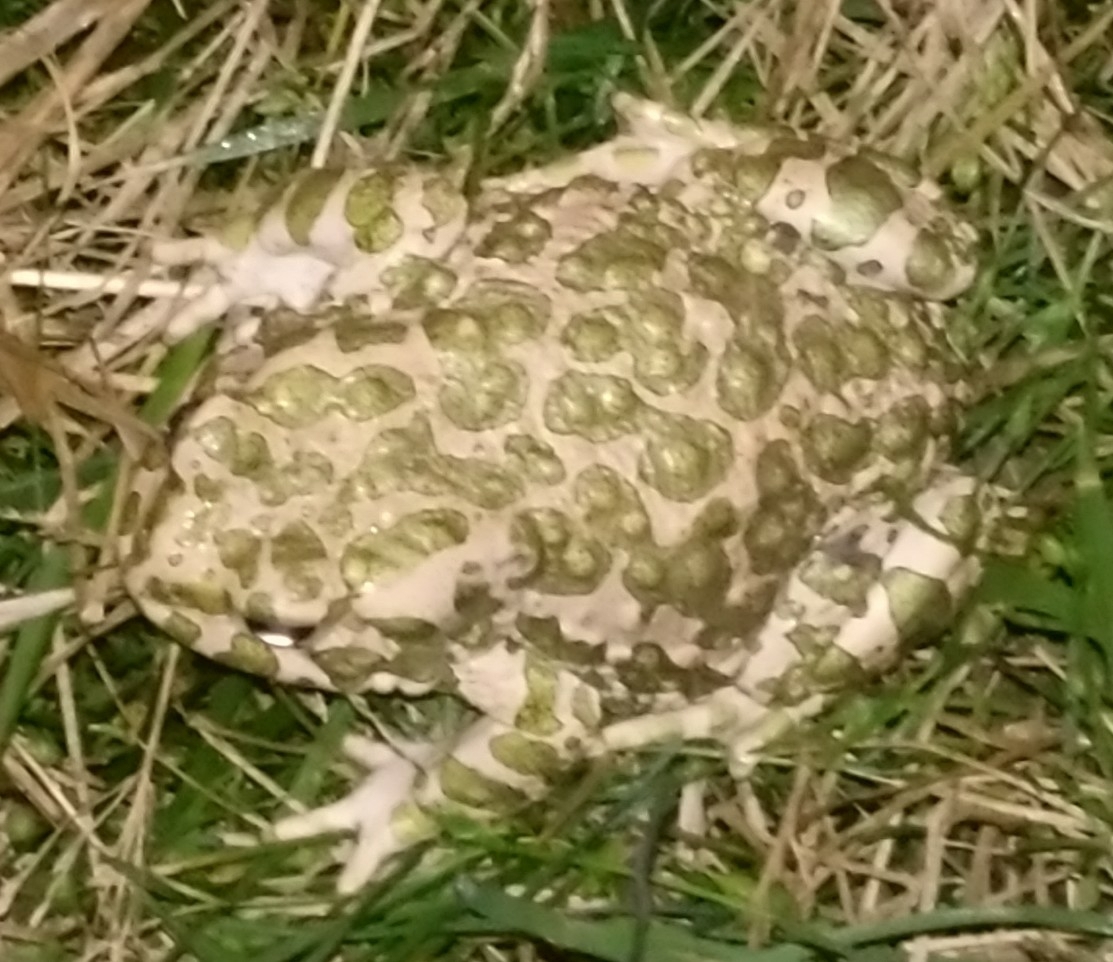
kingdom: Animalia
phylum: Chordata
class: Amphibia
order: Anura
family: Bufonidae
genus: Bufotes
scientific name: Bufotes viridis
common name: European green toad
